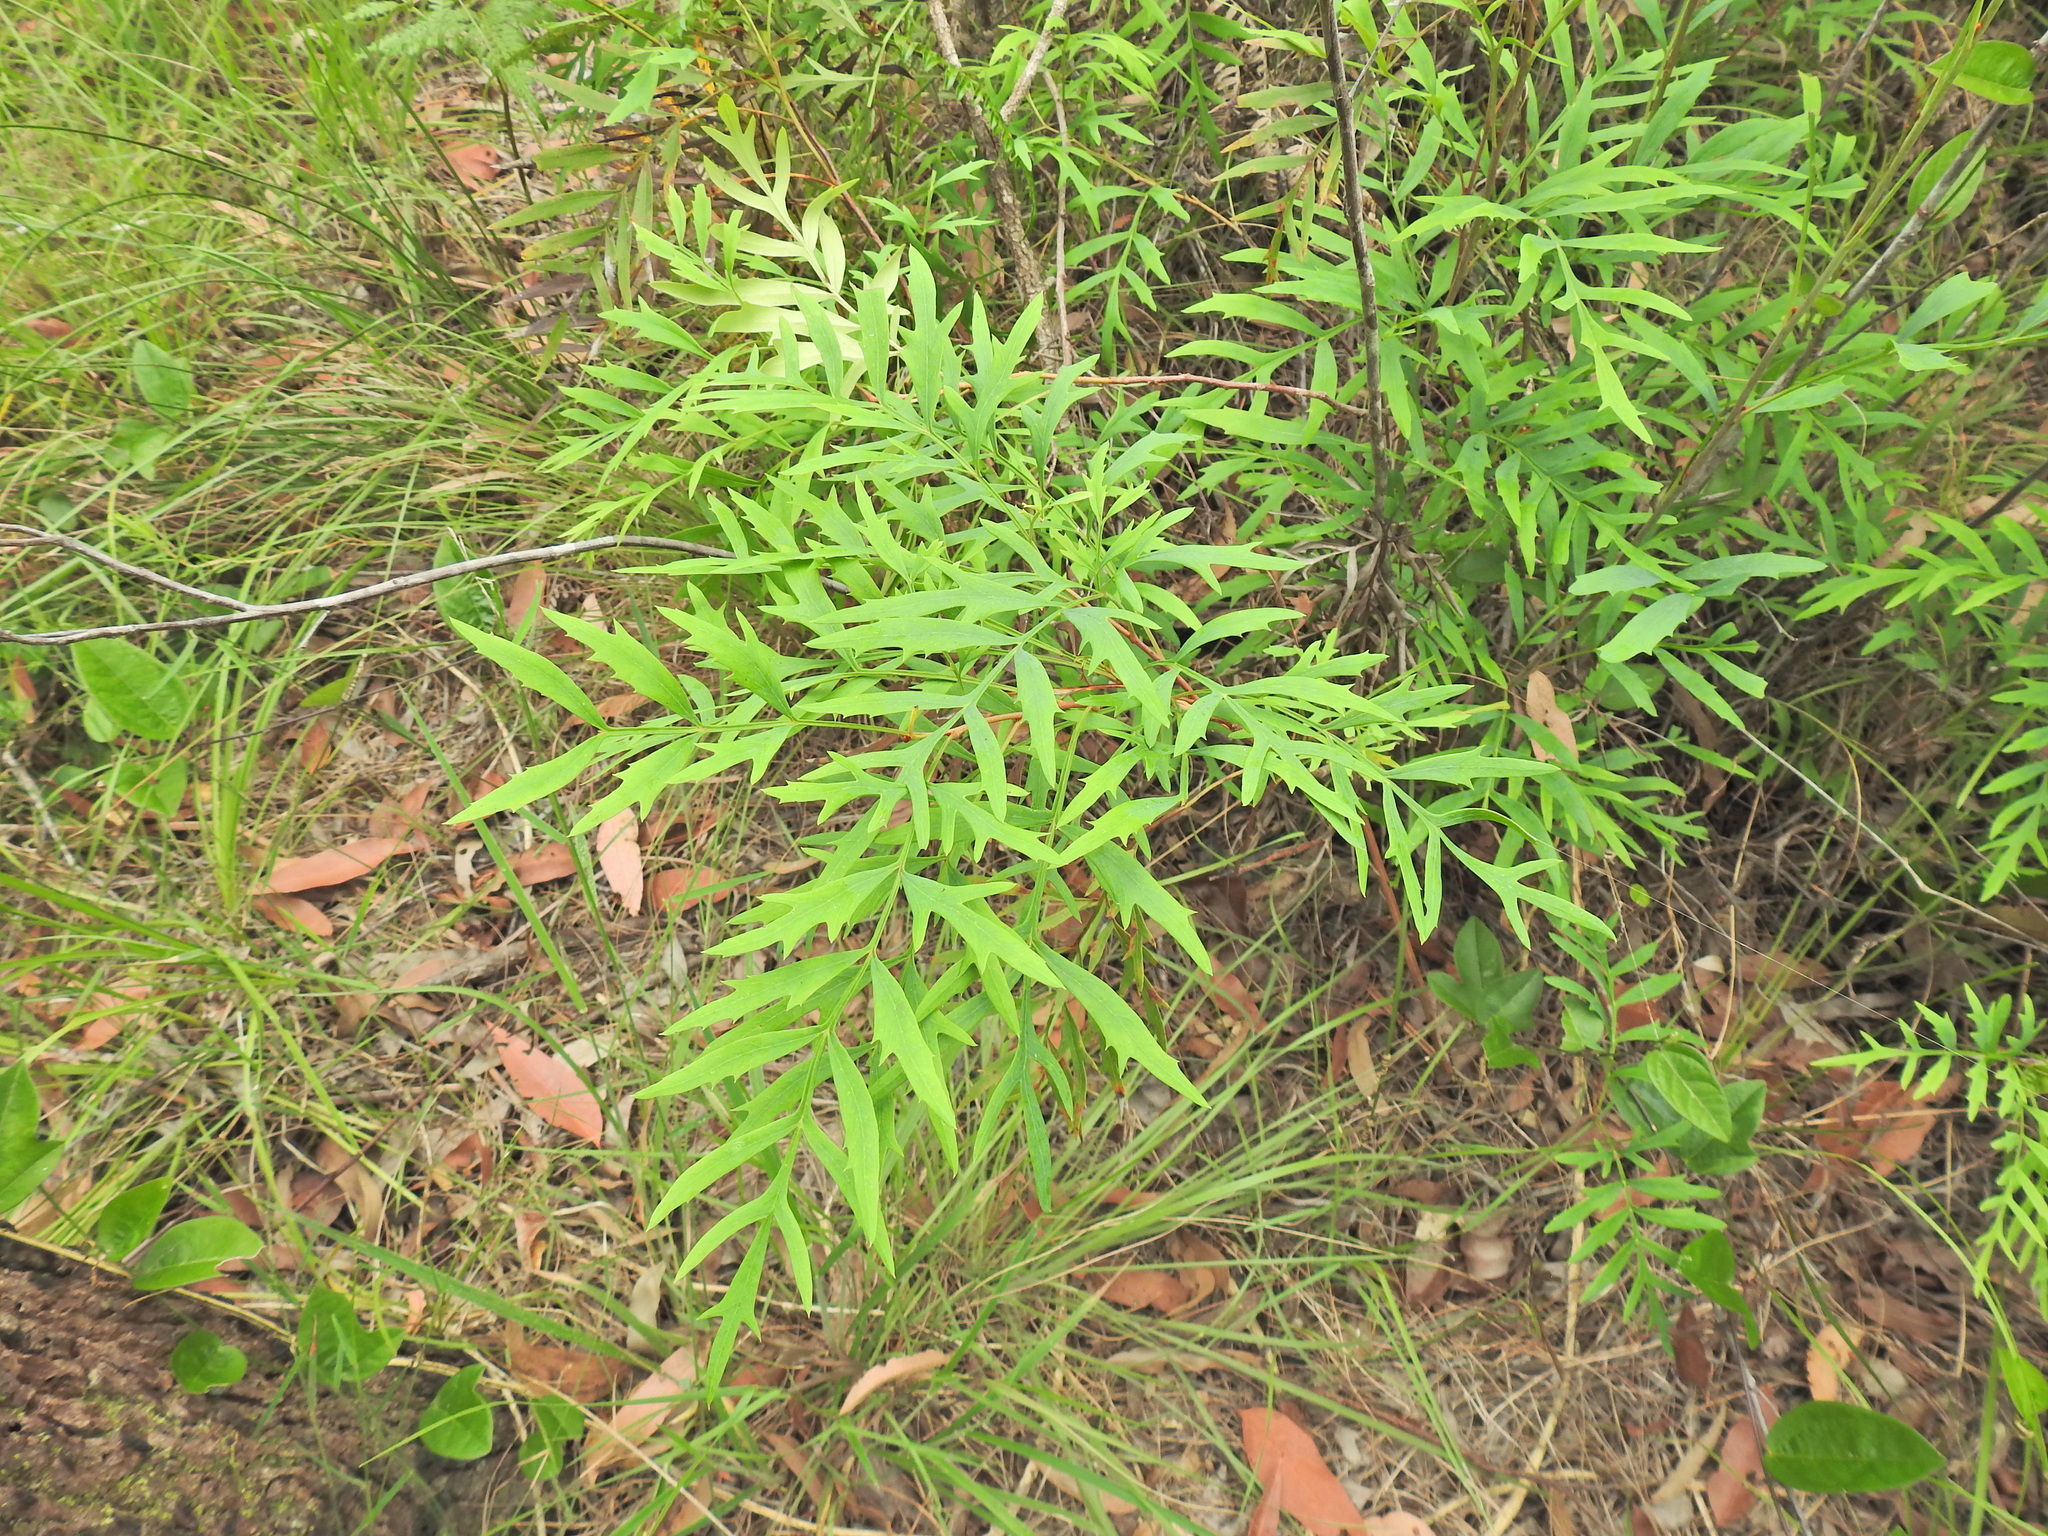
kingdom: Plantae
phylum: Tracheophyta
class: Magnoliopsida
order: Proteales
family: Proteaceae
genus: Lomatia
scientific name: Lomatia silaifolia
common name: Crinklebush
